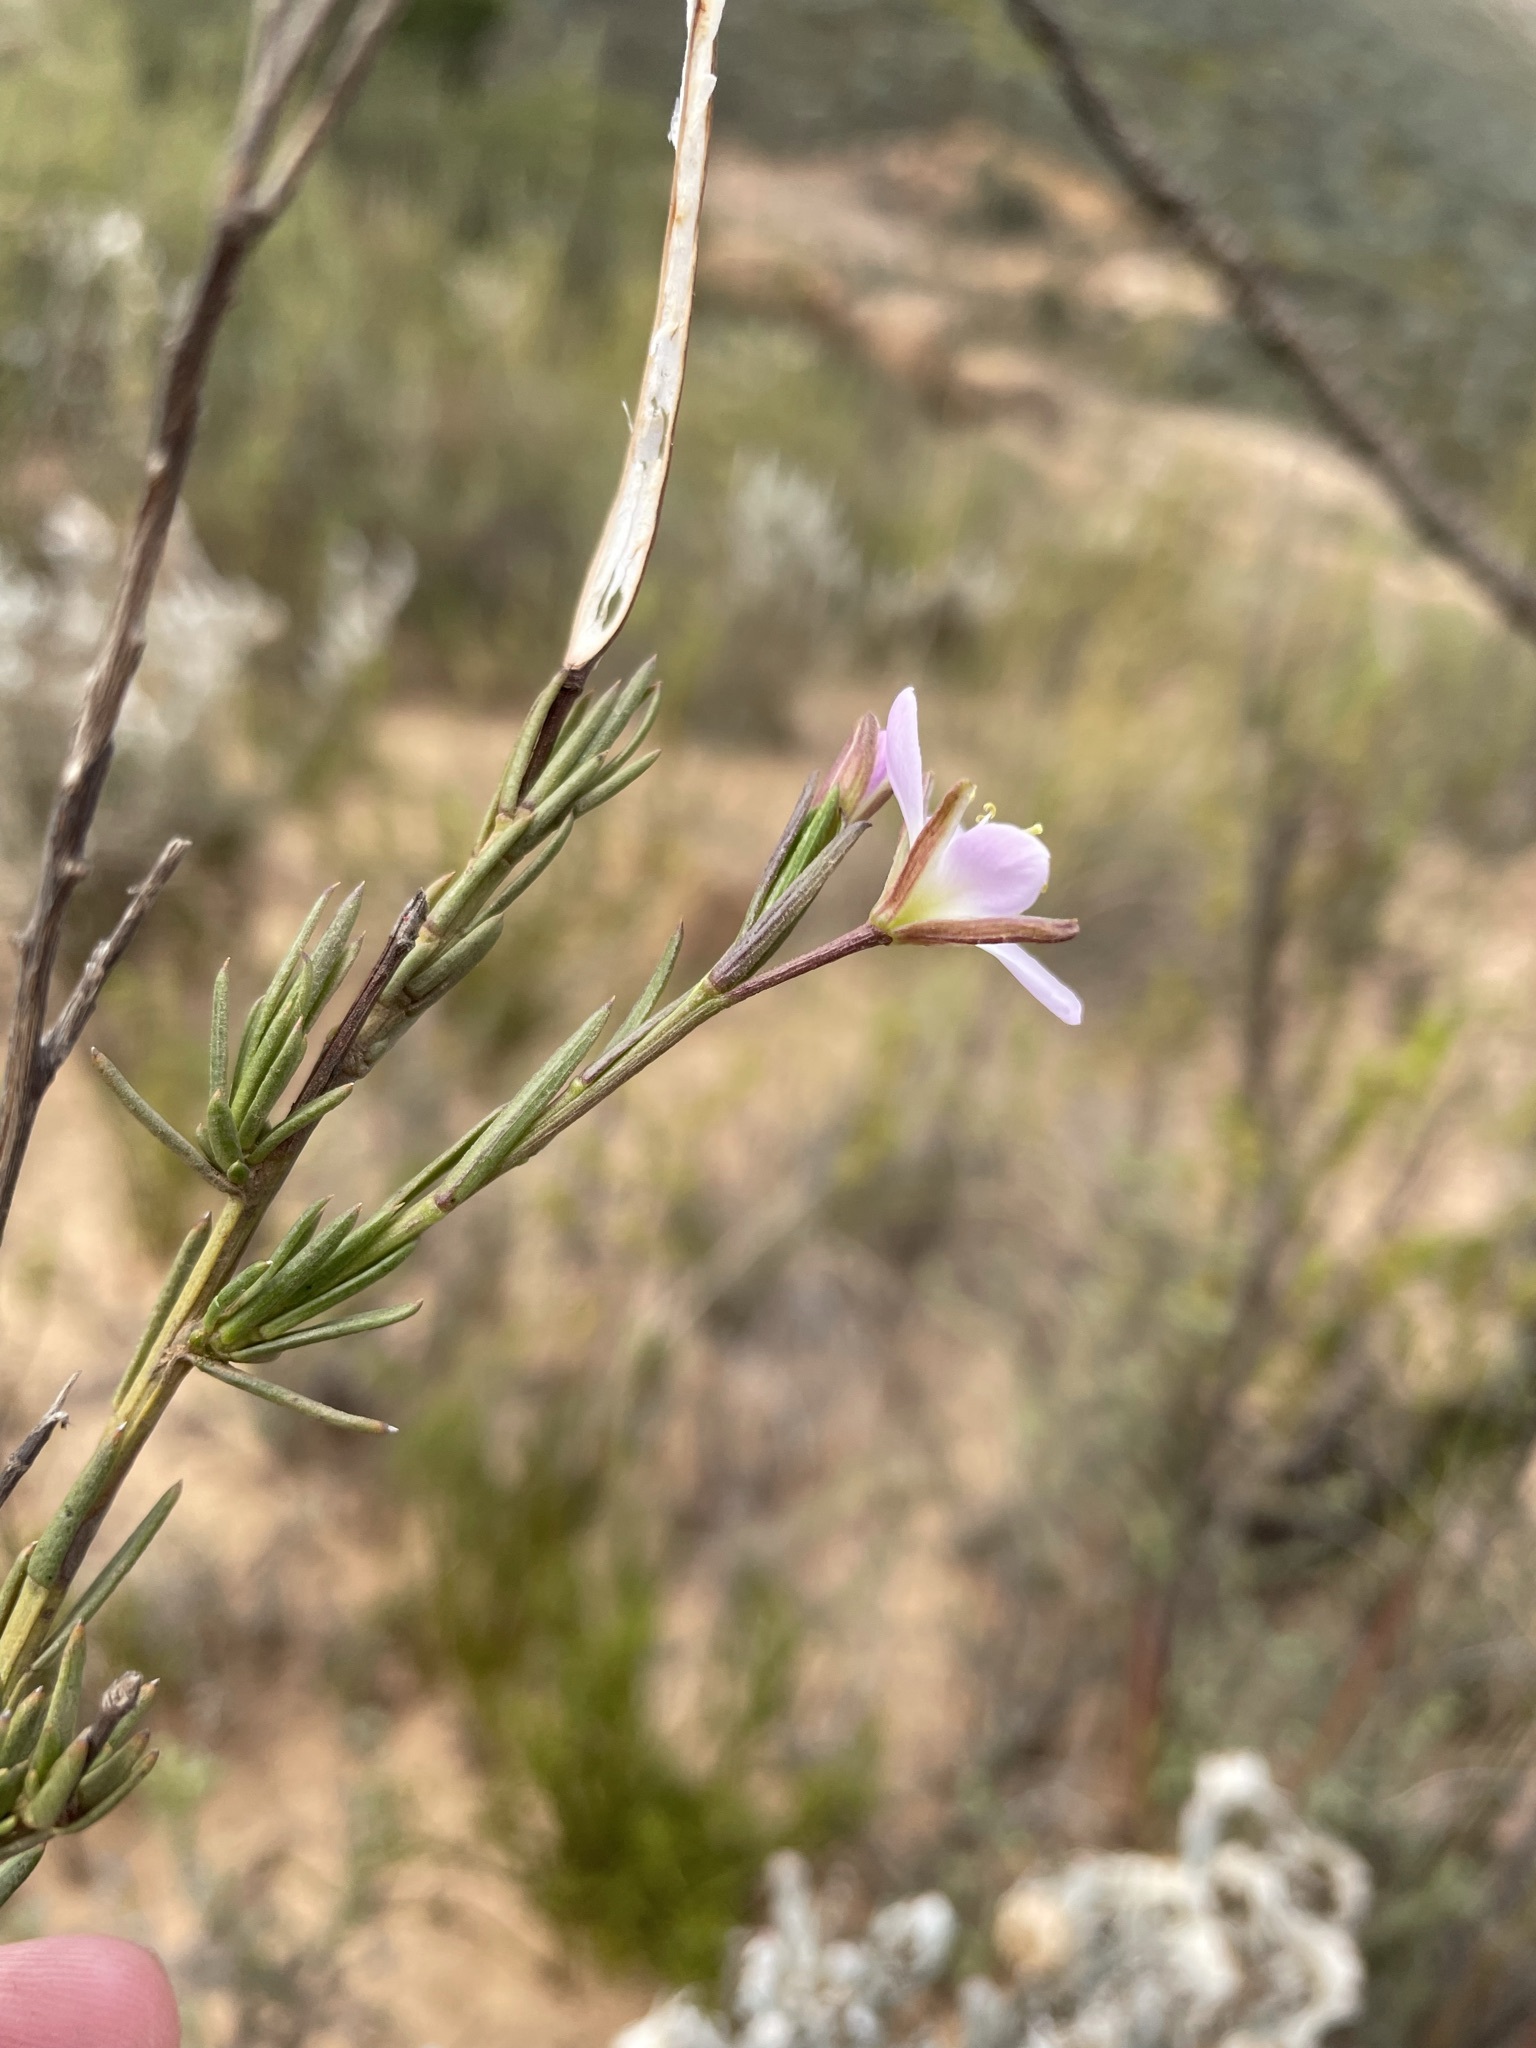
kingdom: Plantae
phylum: Tracheophyta
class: Magnoliopsida
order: Brassicales
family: Brassicaceae
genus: Heliophila
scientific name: Heliophila scoparia
